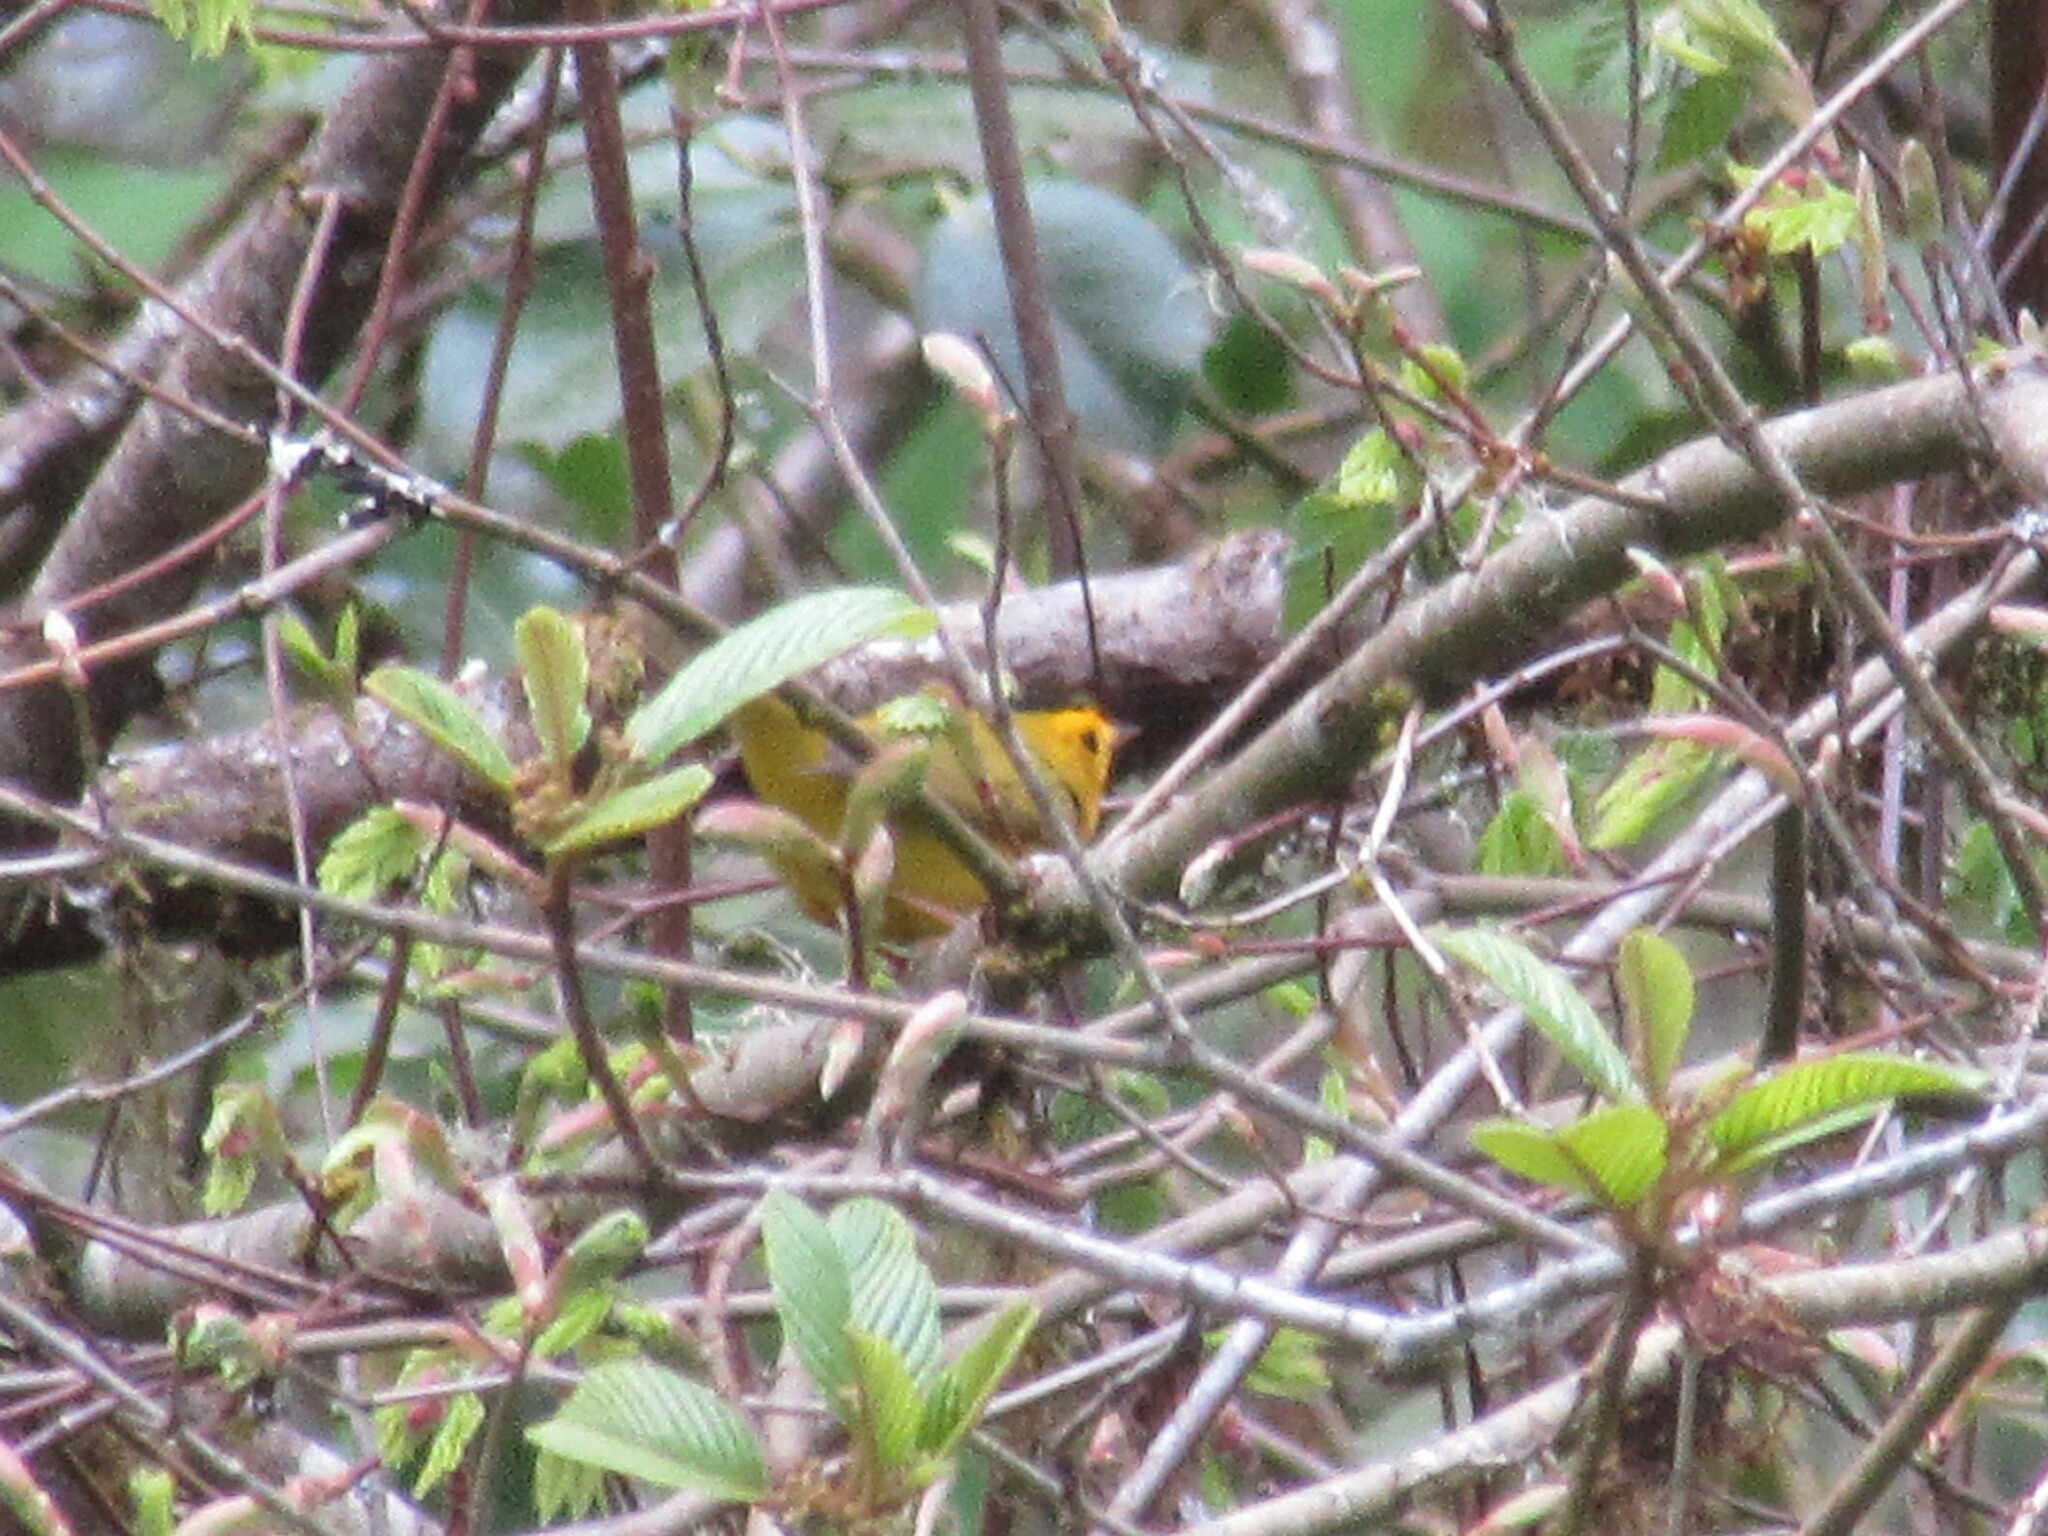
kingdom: Animalia
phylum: Chordata
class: Aves
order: Passeriformes
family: Parulidae
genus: Cardellina
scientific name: Cardellina pusilla
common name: Wilson's warbler
